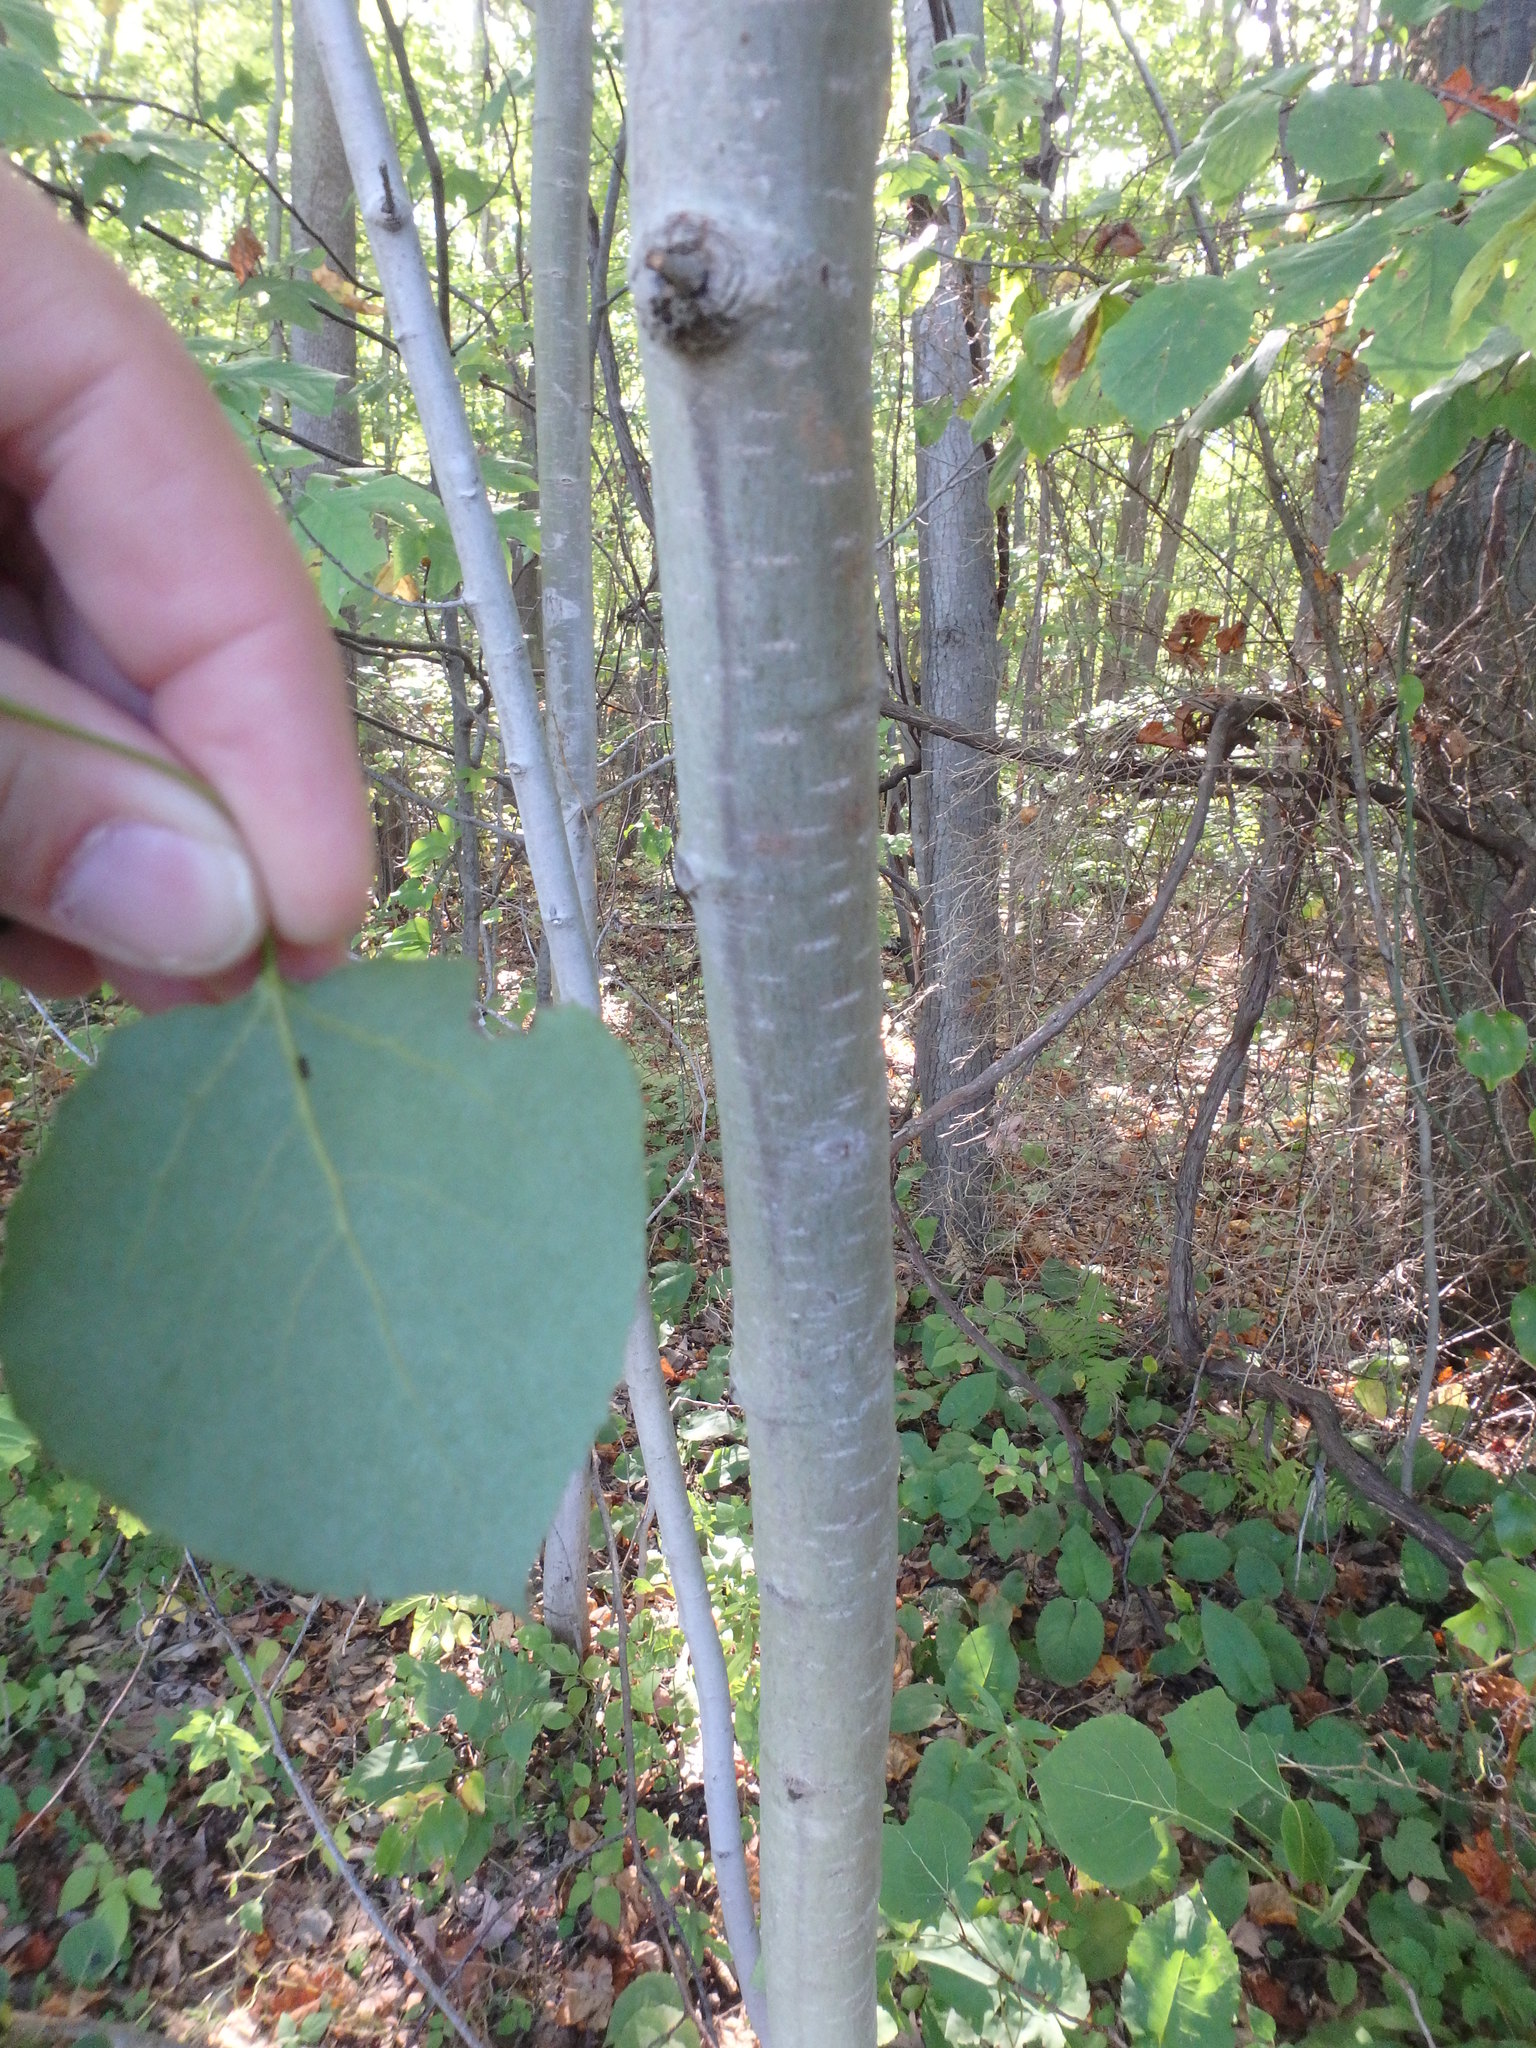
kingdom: Plantae
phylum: Tracheophyta
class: Magnoliopsida
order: Malpighiales
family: Salicaceae
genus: Populus
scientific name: Populus tremuloides
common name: Quaking aspen
